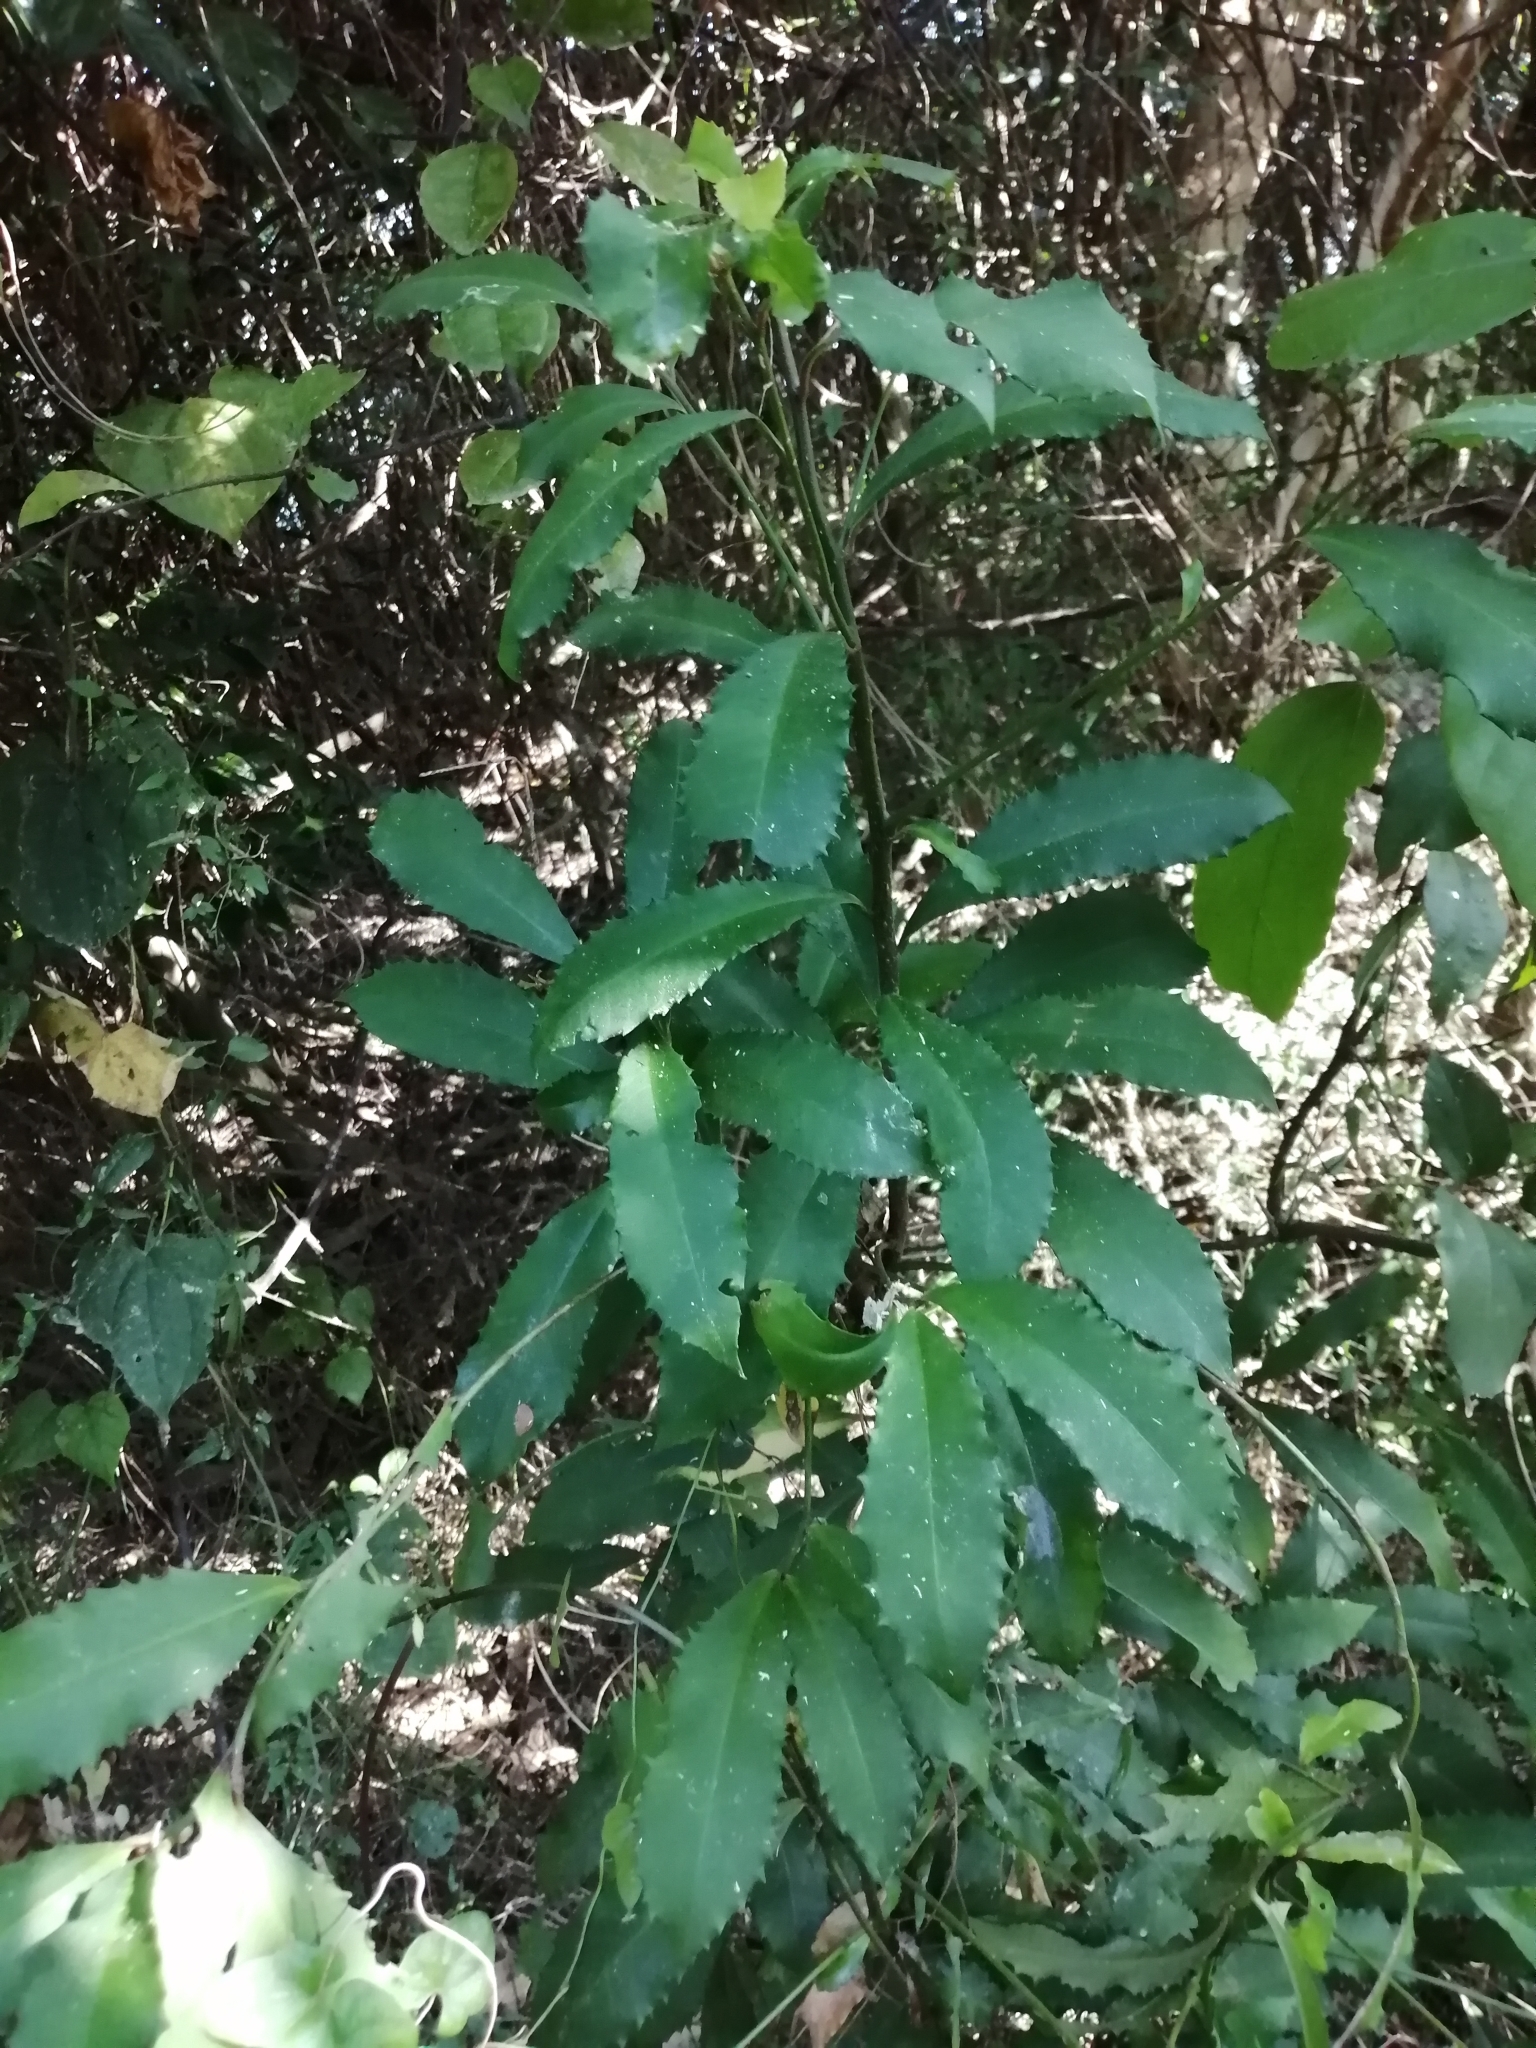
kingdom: Plantae
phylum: Tracheophyta
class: Magnoliopsida
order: Ericales
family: Primulaceae
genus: Ardisia
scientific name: Ardisia cornudentata
